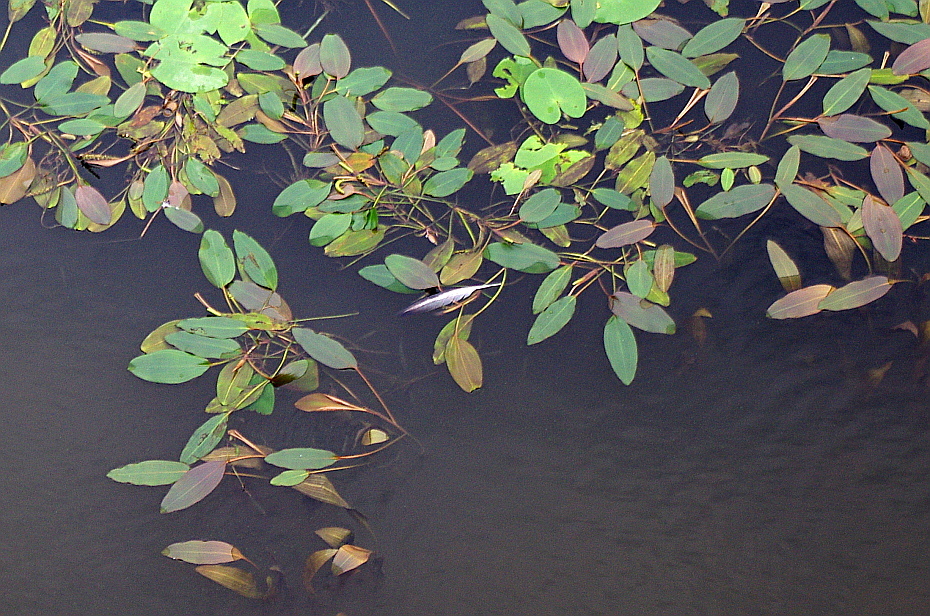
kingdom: Plantae
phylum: Tracheophyta
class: Liliopsida
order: Alismatales
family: Potamogetonaceae
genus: Potamogeton
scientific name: Potamogeton nodosus
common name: Loddon pondweed
